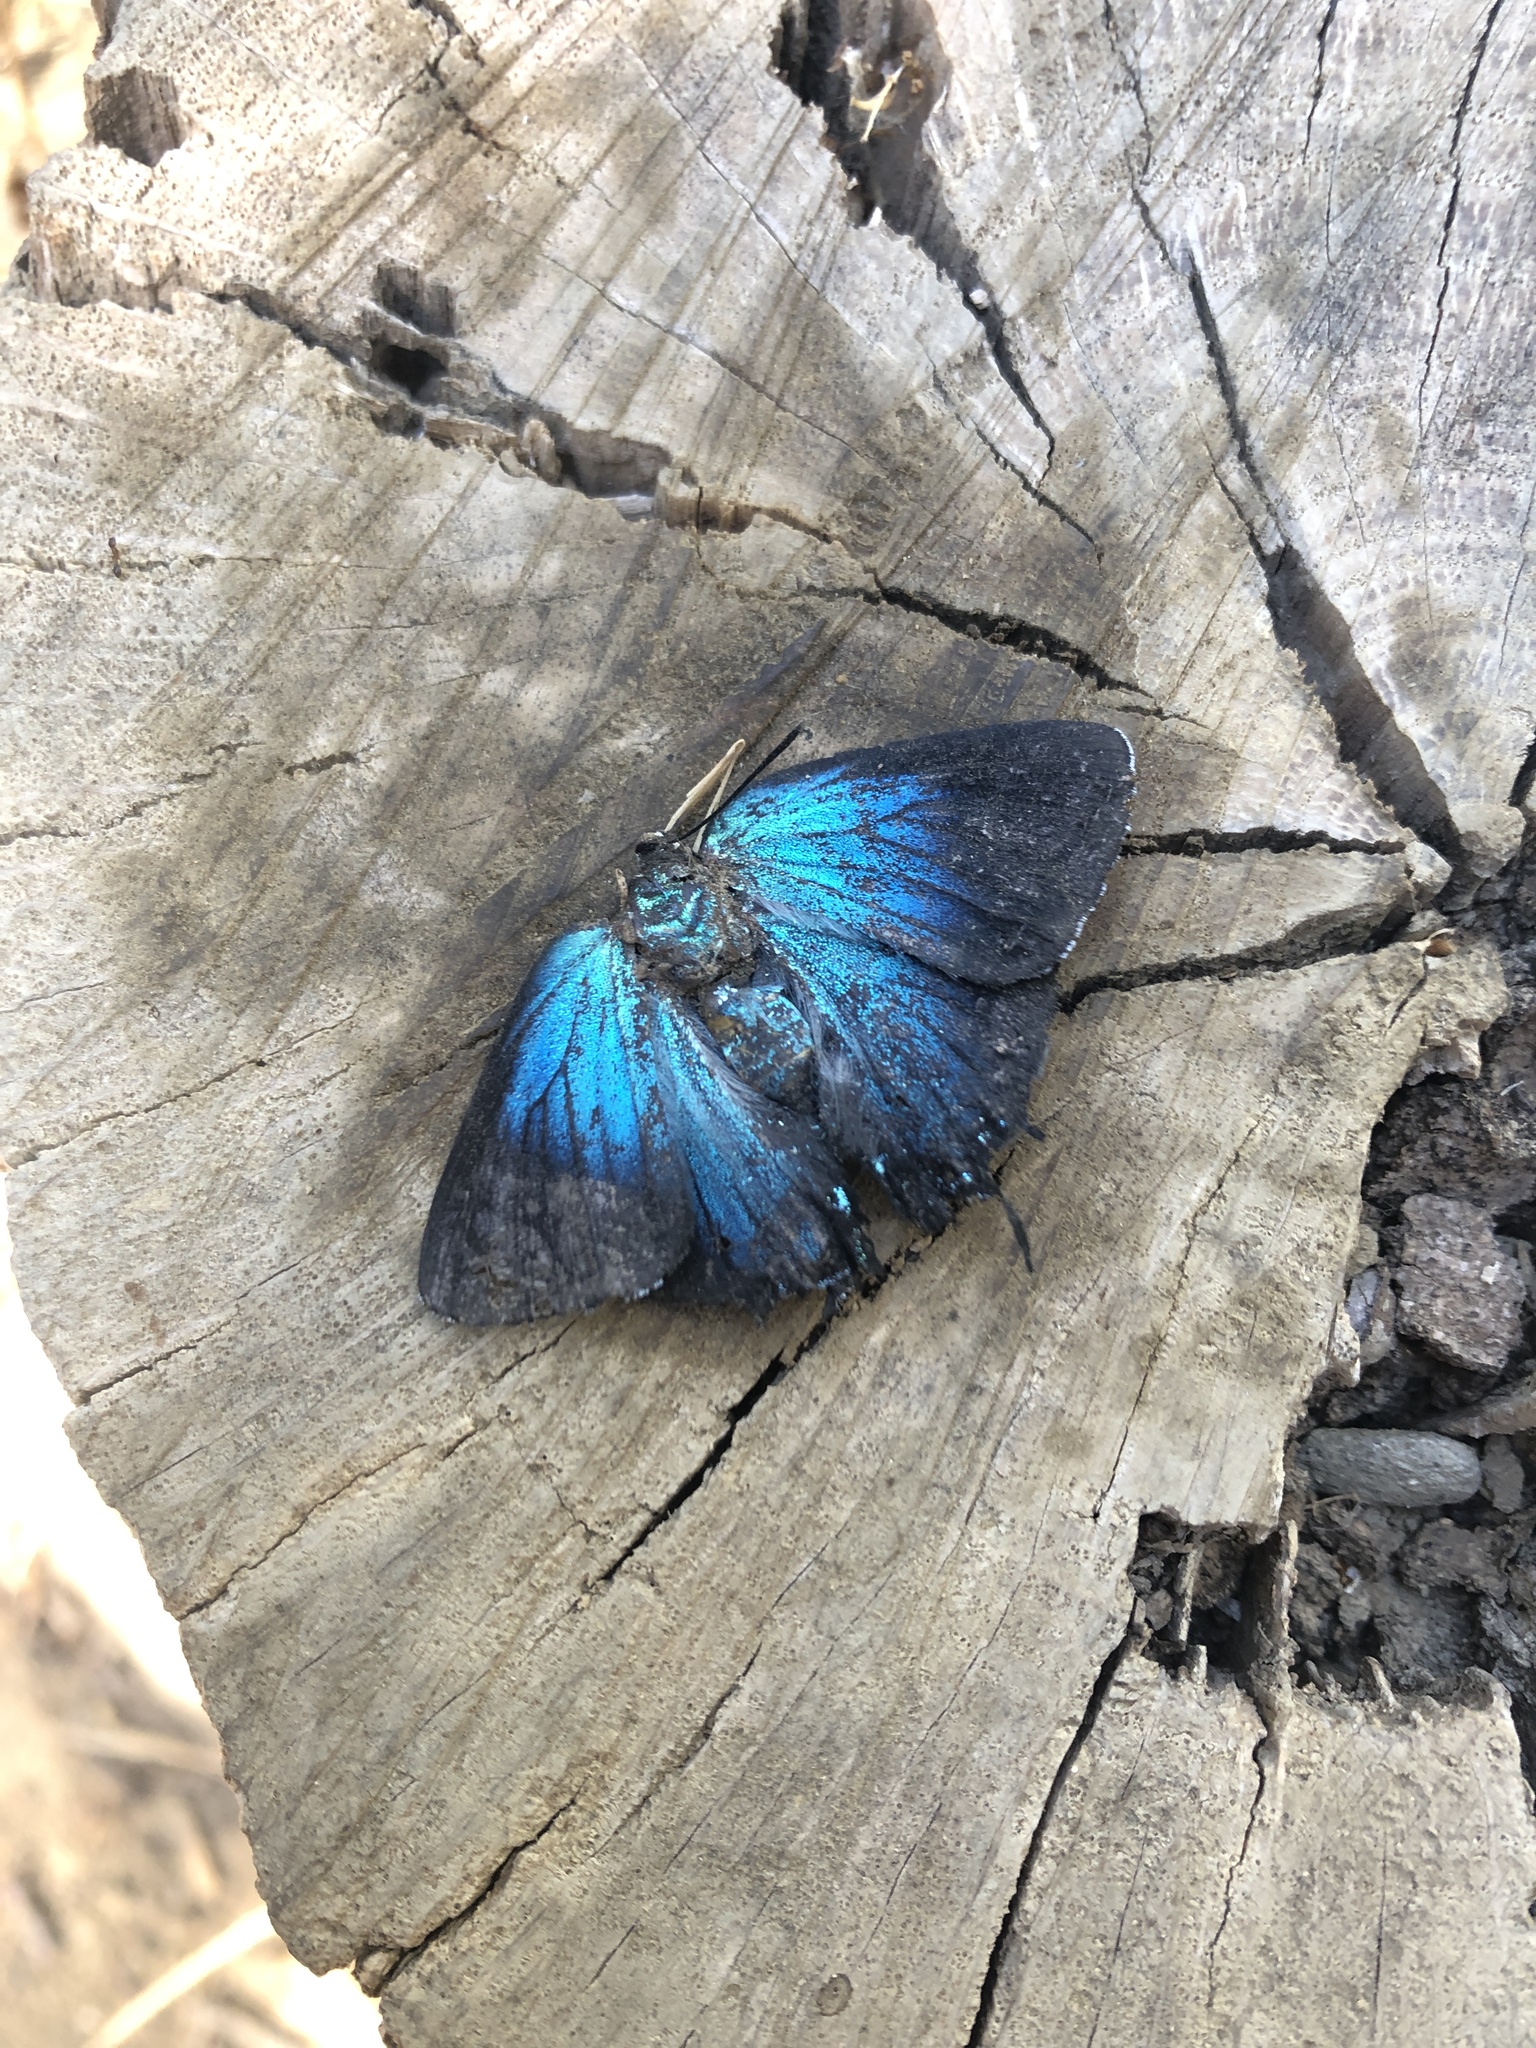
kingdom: Animalia
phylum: Arthropoda
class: Insecta
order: Lepidoptera
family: Lycaenidae
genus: Atlides
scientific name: Atlides halesus
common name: Great purple hairstreak
